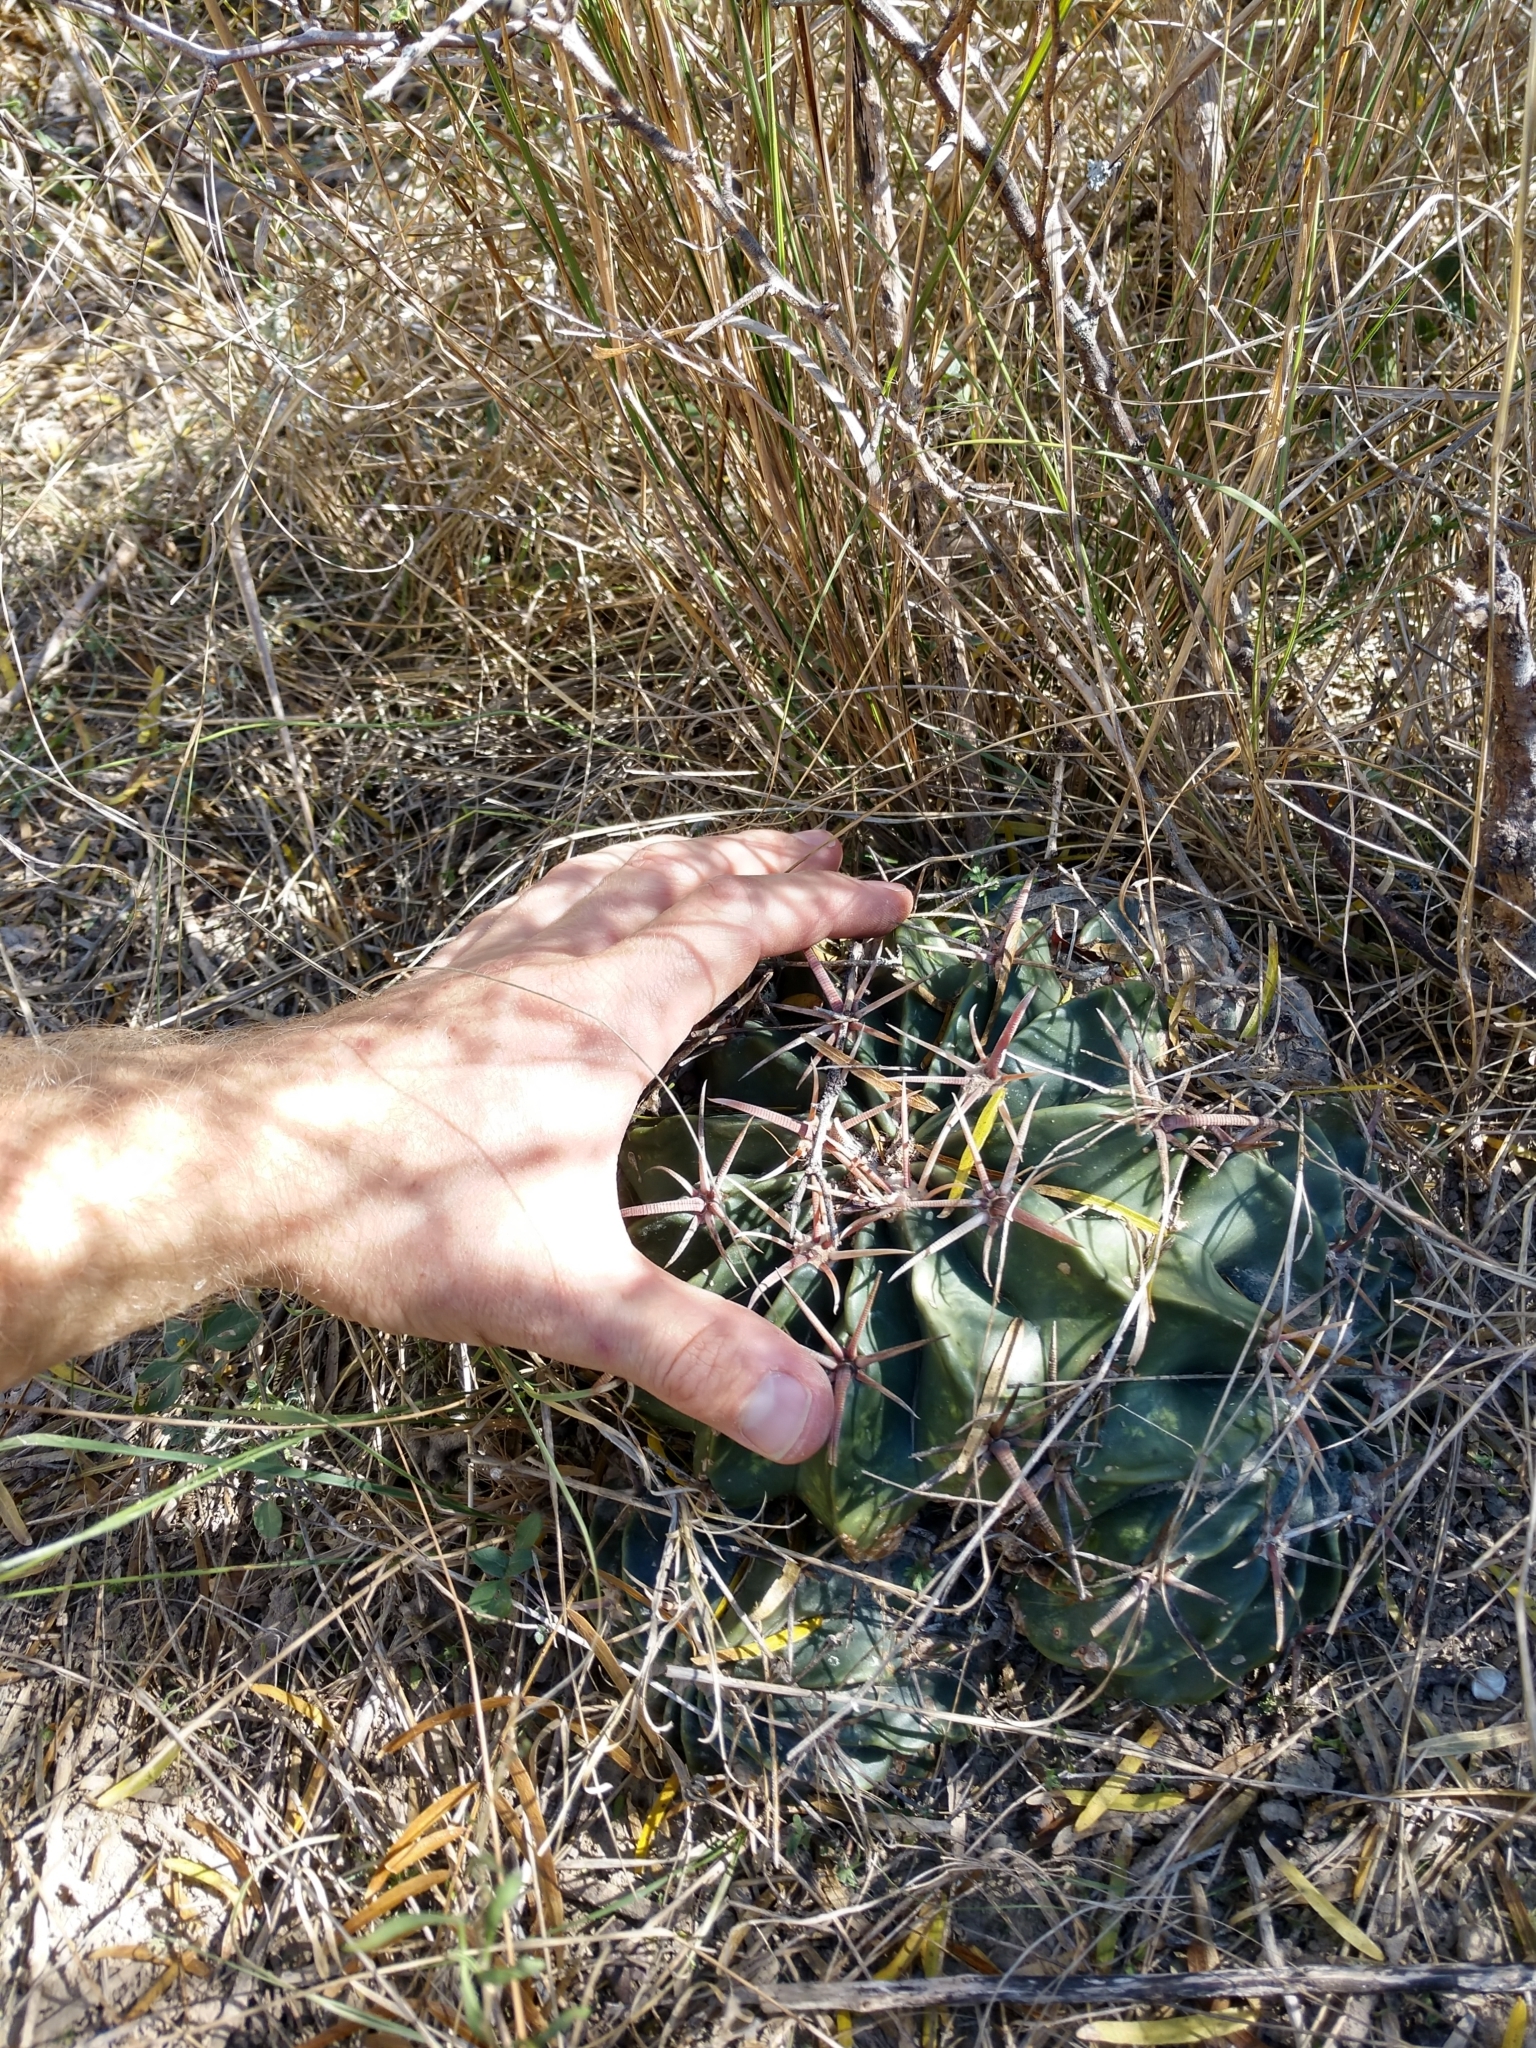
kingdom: Plantae
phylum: Tracheophyta
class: Magnoliopsida
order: Caryophyllales
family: Cactaceae
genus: Echinocactus
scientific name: Echinocactus texensis
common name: Devil's pincushion
